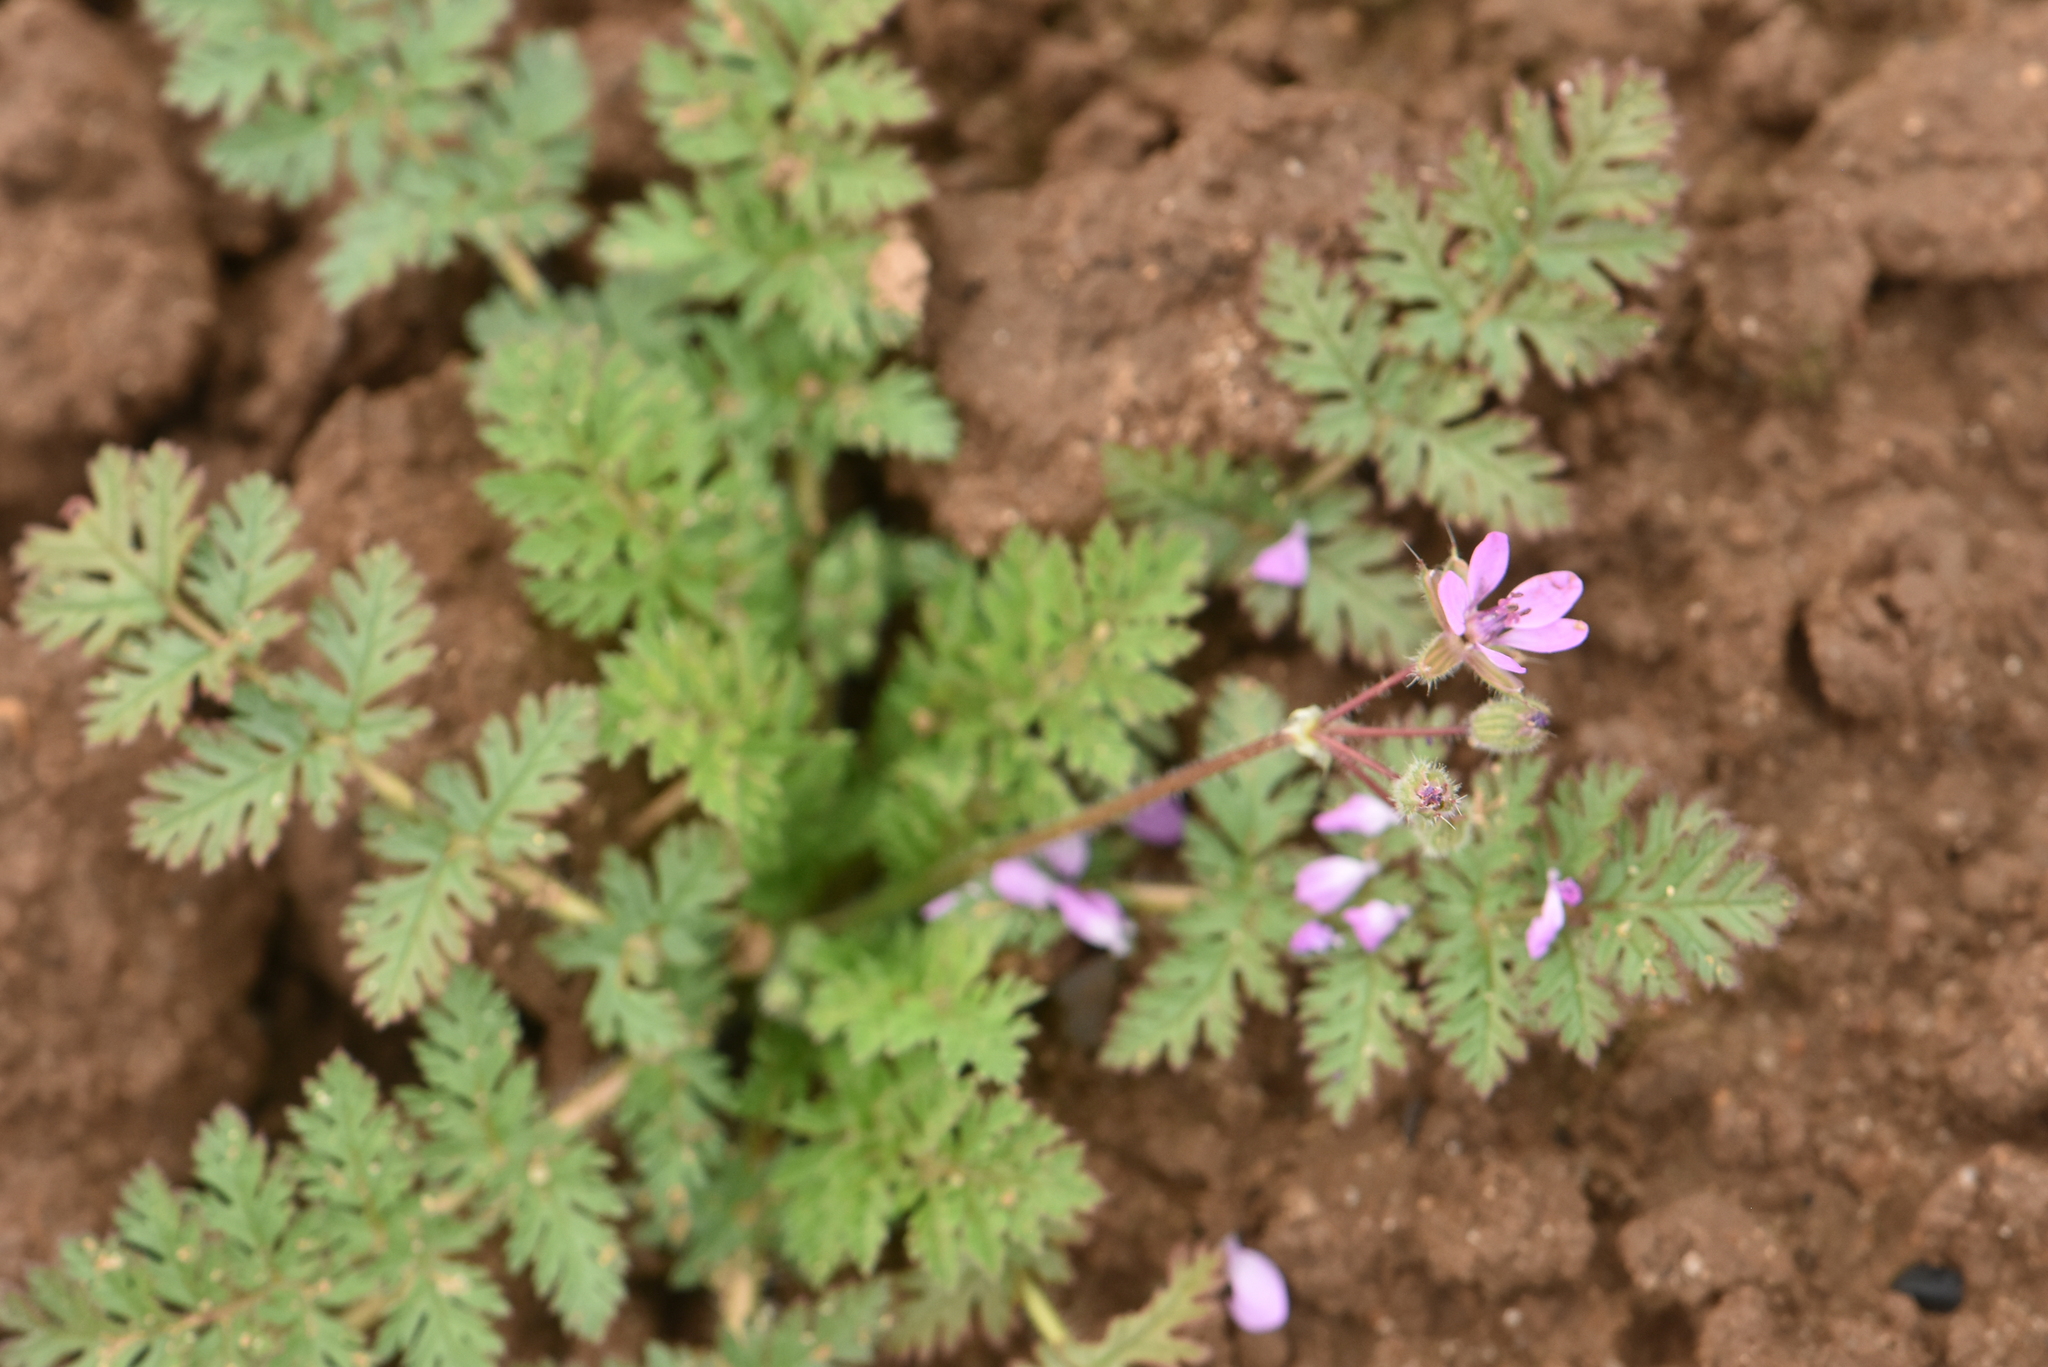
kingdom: Plantae
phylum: Tracheophyta
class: Magnoliopsida
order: Geraniales
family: Geraniaceae
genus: Erodium
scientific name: Erodium cicutarium
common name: Common stork's-bill
